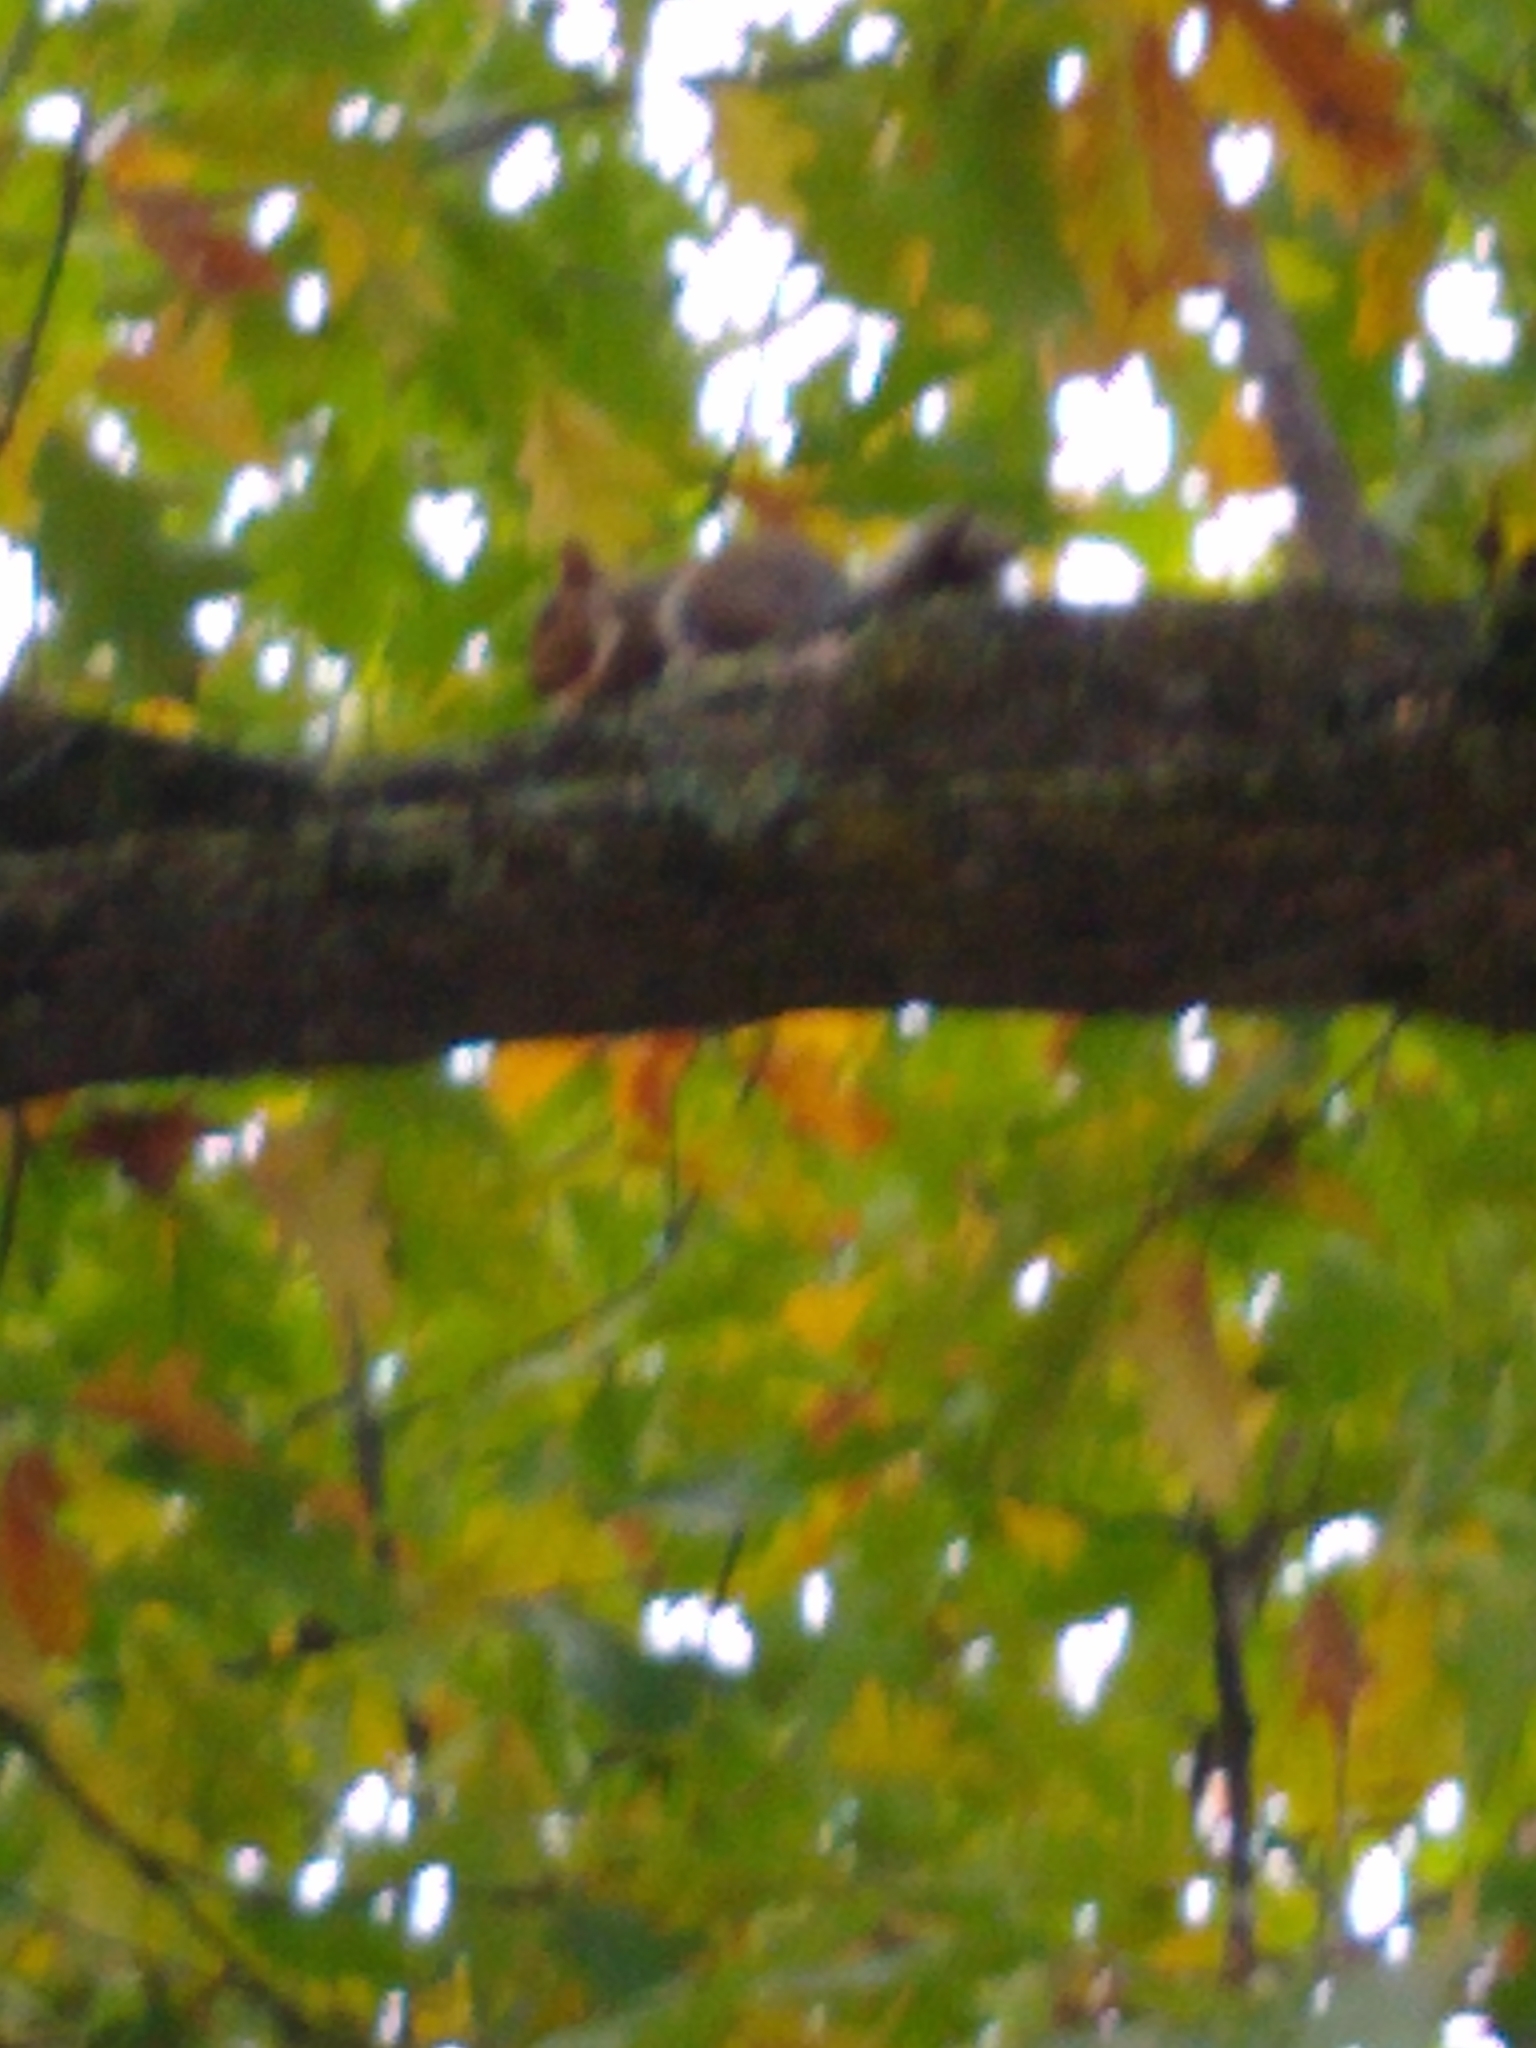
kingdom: Animalia
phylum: Chordata
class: Mammalia
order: Rodentia
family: Sciuridae
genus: Sciurus
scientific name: Sciurus carolinensis
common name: Eastern gray squirrel
